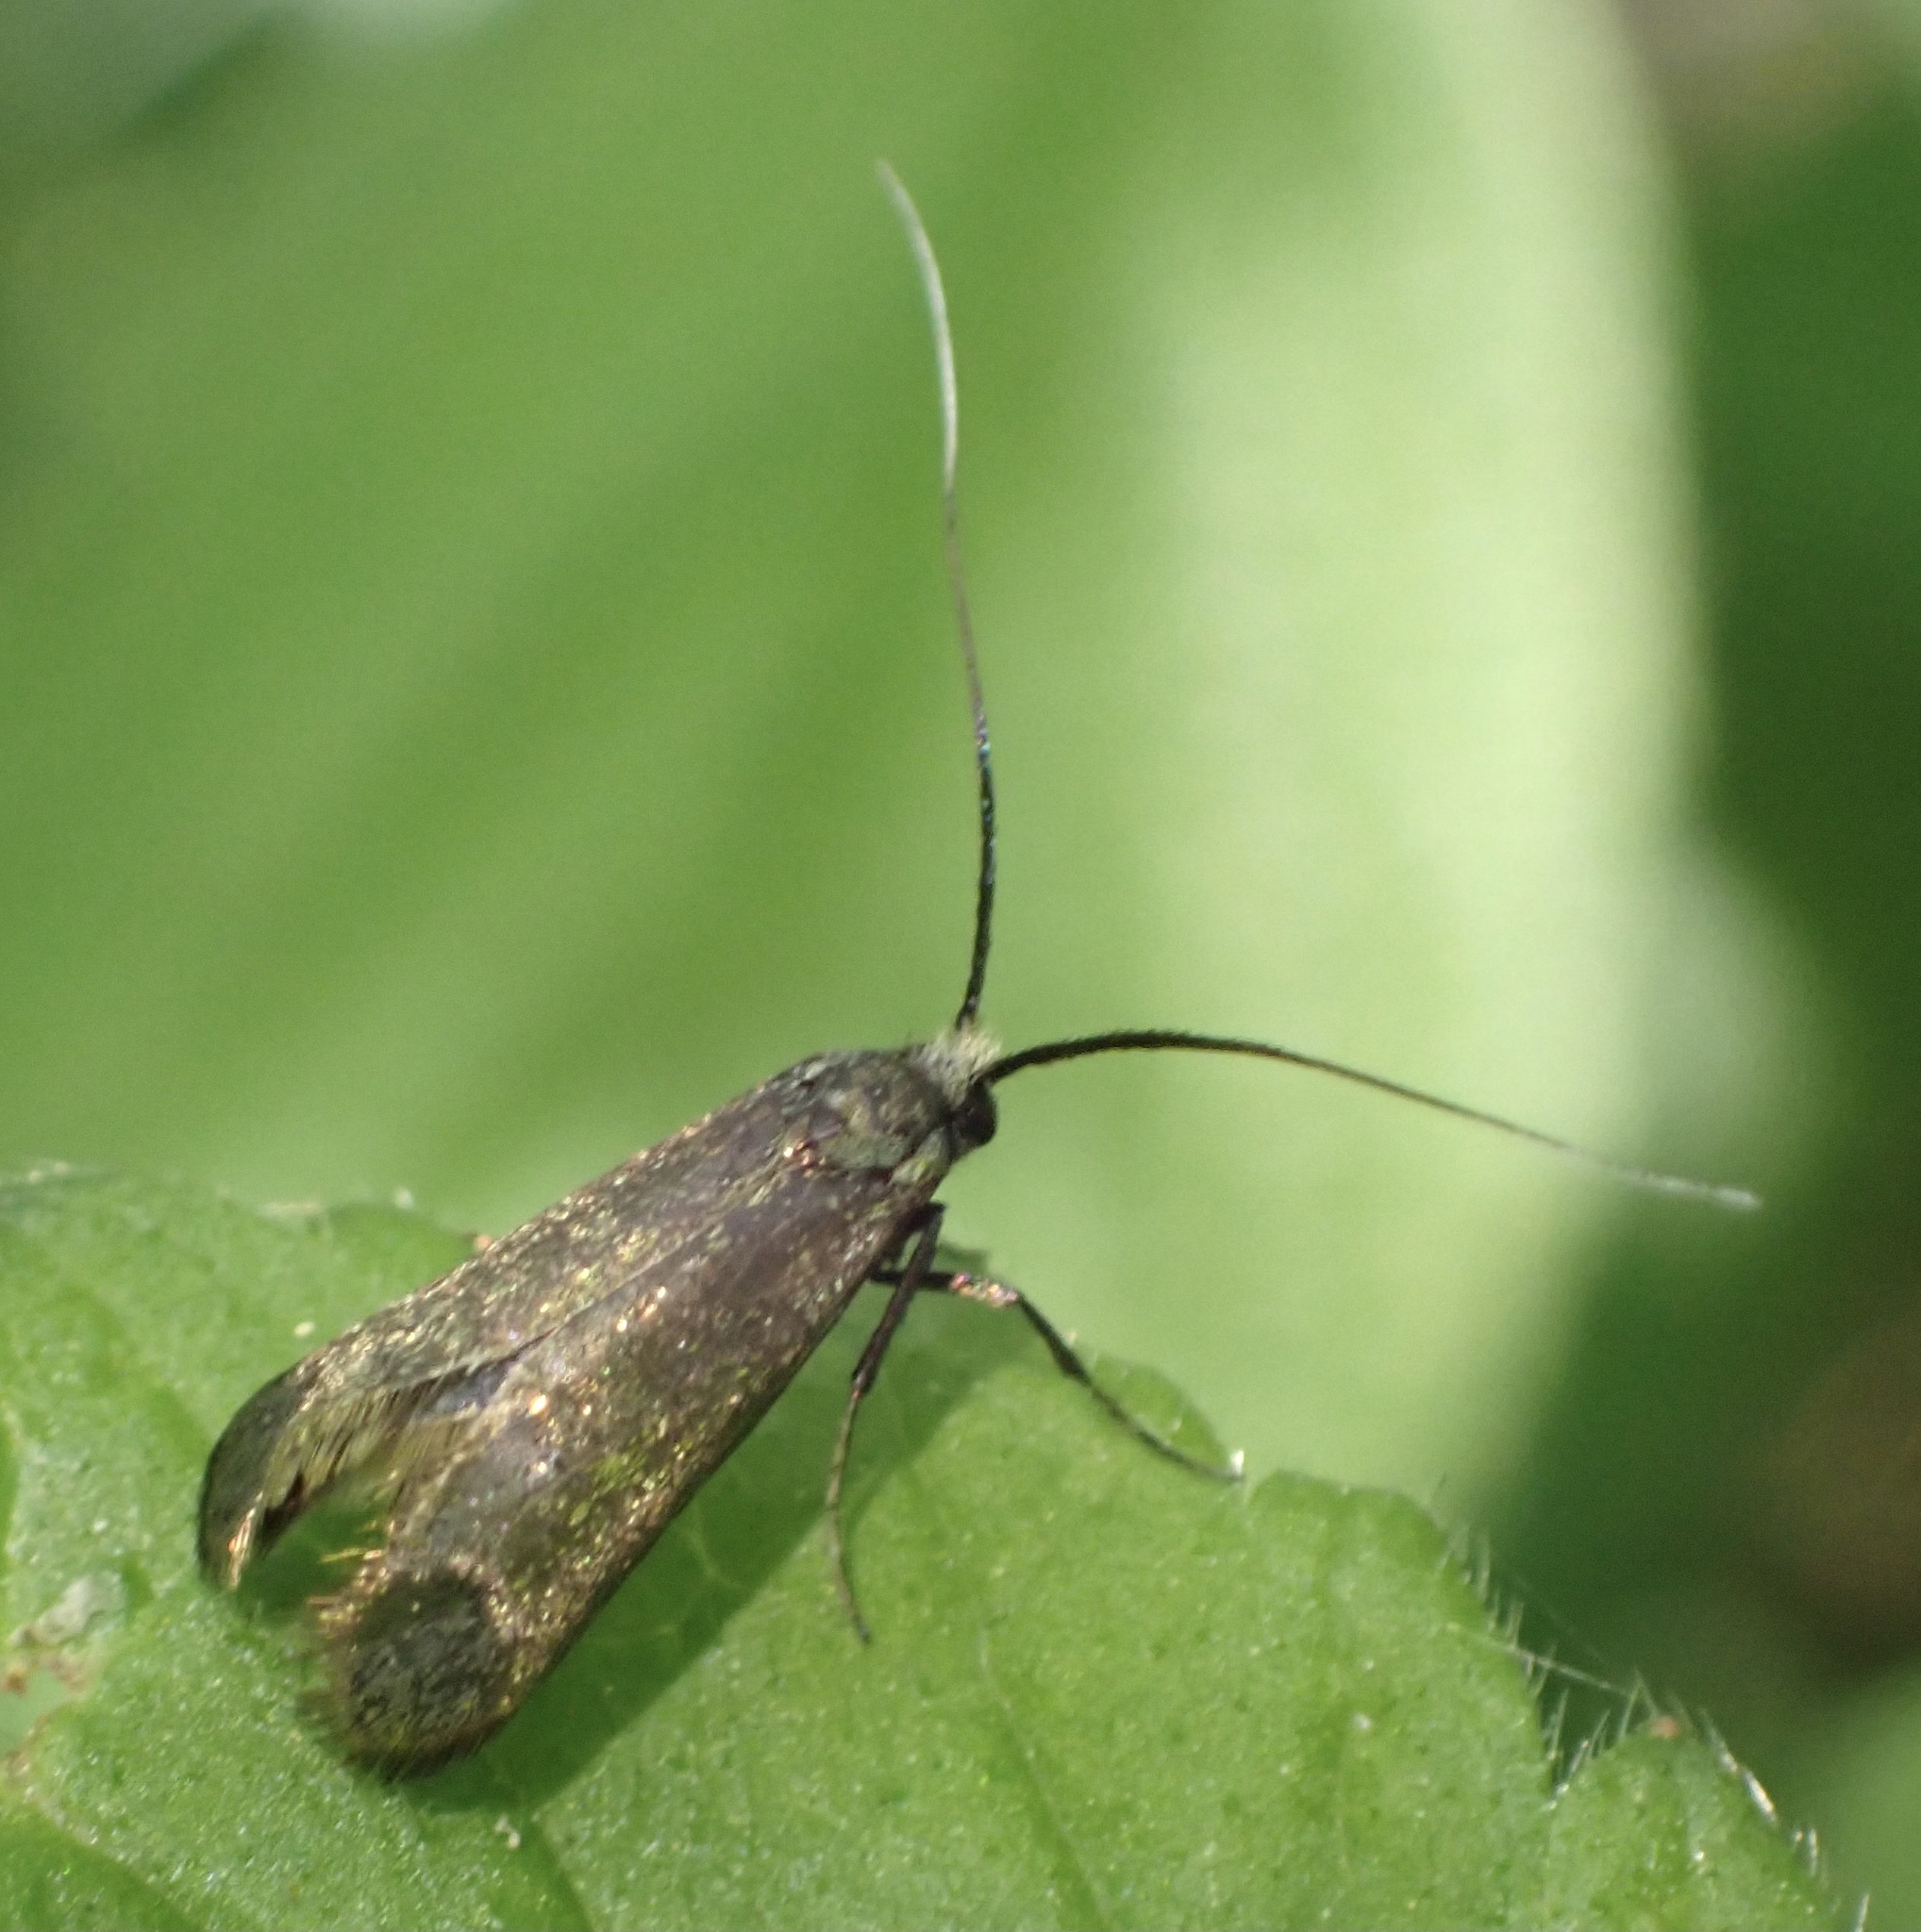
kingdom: Animalia
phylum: Arthropoda
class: Insecta
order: Lepidoptera
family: Adelidae
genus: Adela
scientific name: Adela viridella
